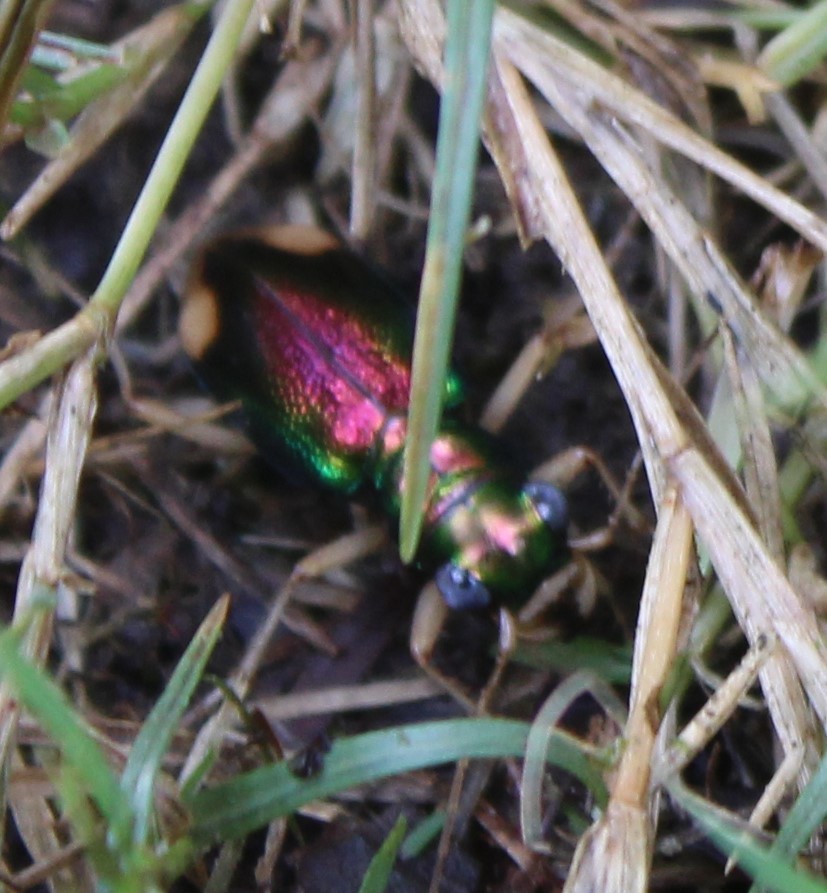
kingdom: Animalia
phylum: Arthropoda
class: Insecta
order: Coleoptera
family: Carabidae
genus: Tetracha
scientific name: Tetracha carolina
